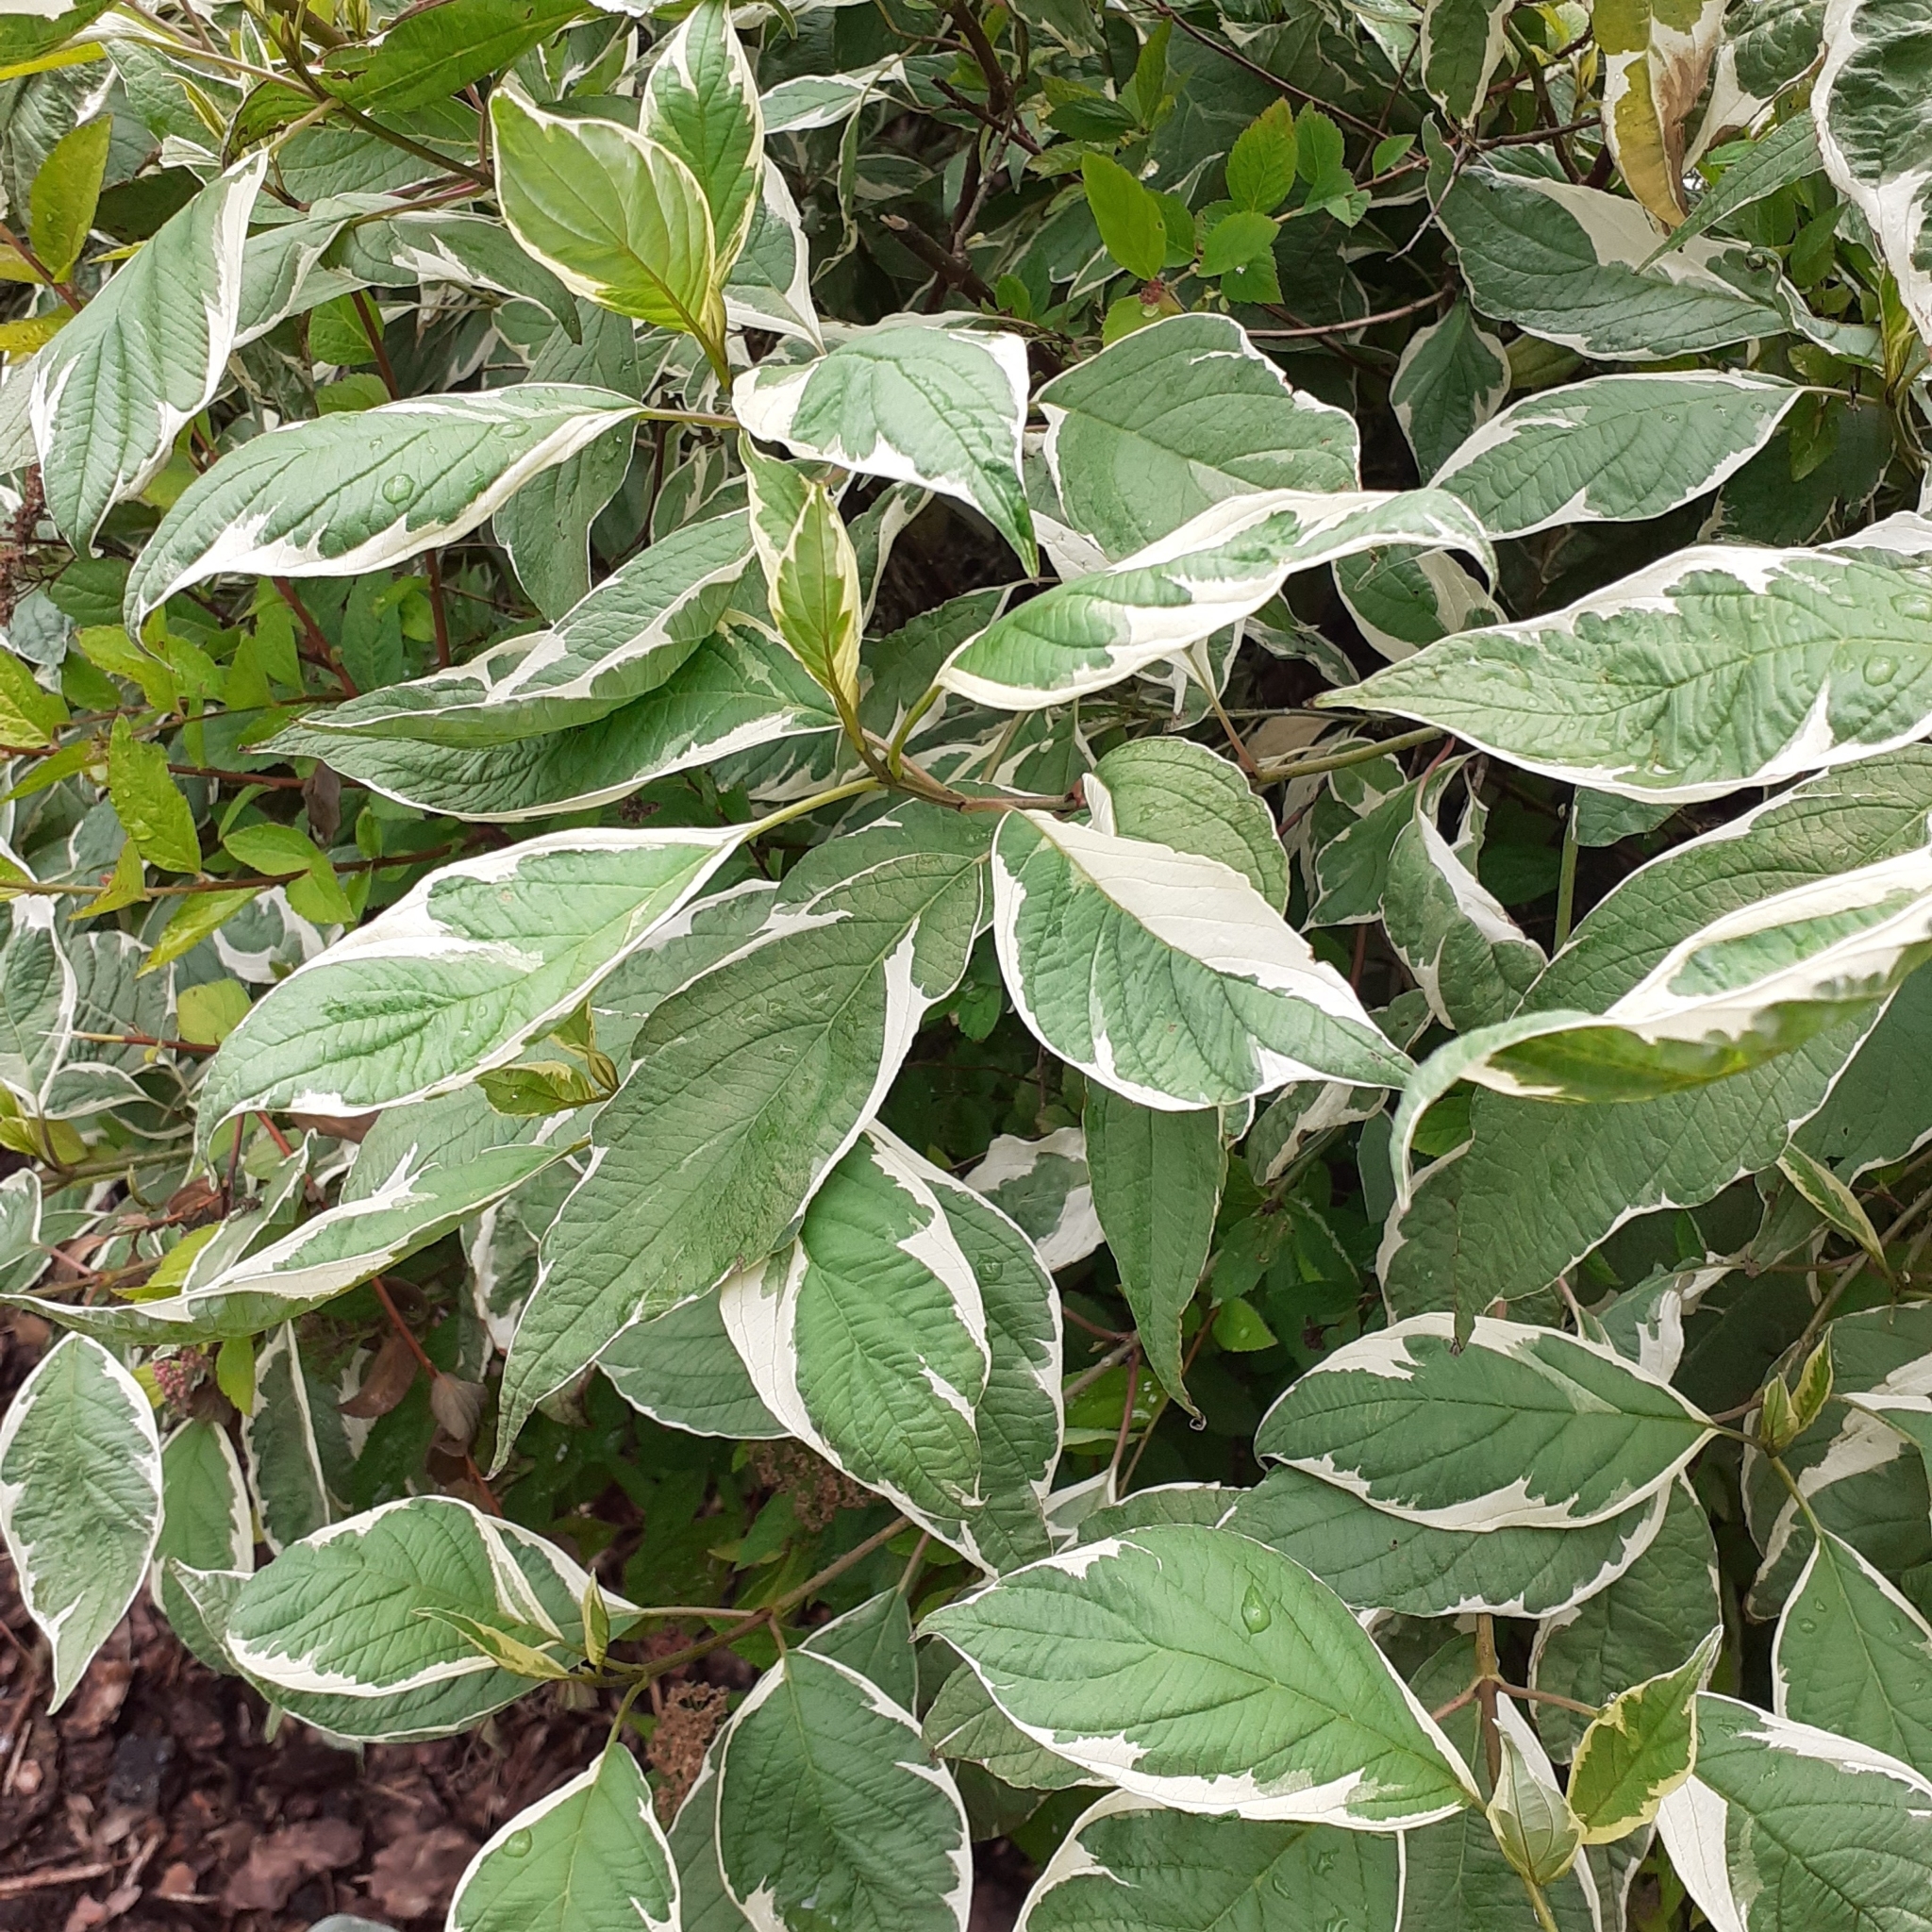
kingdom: Plantae
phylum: Tracheophyta
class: Magnoliopsida
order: Cornales
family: Cornaceae
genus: Cornus
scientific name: Cornus alba
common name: White dogwood
